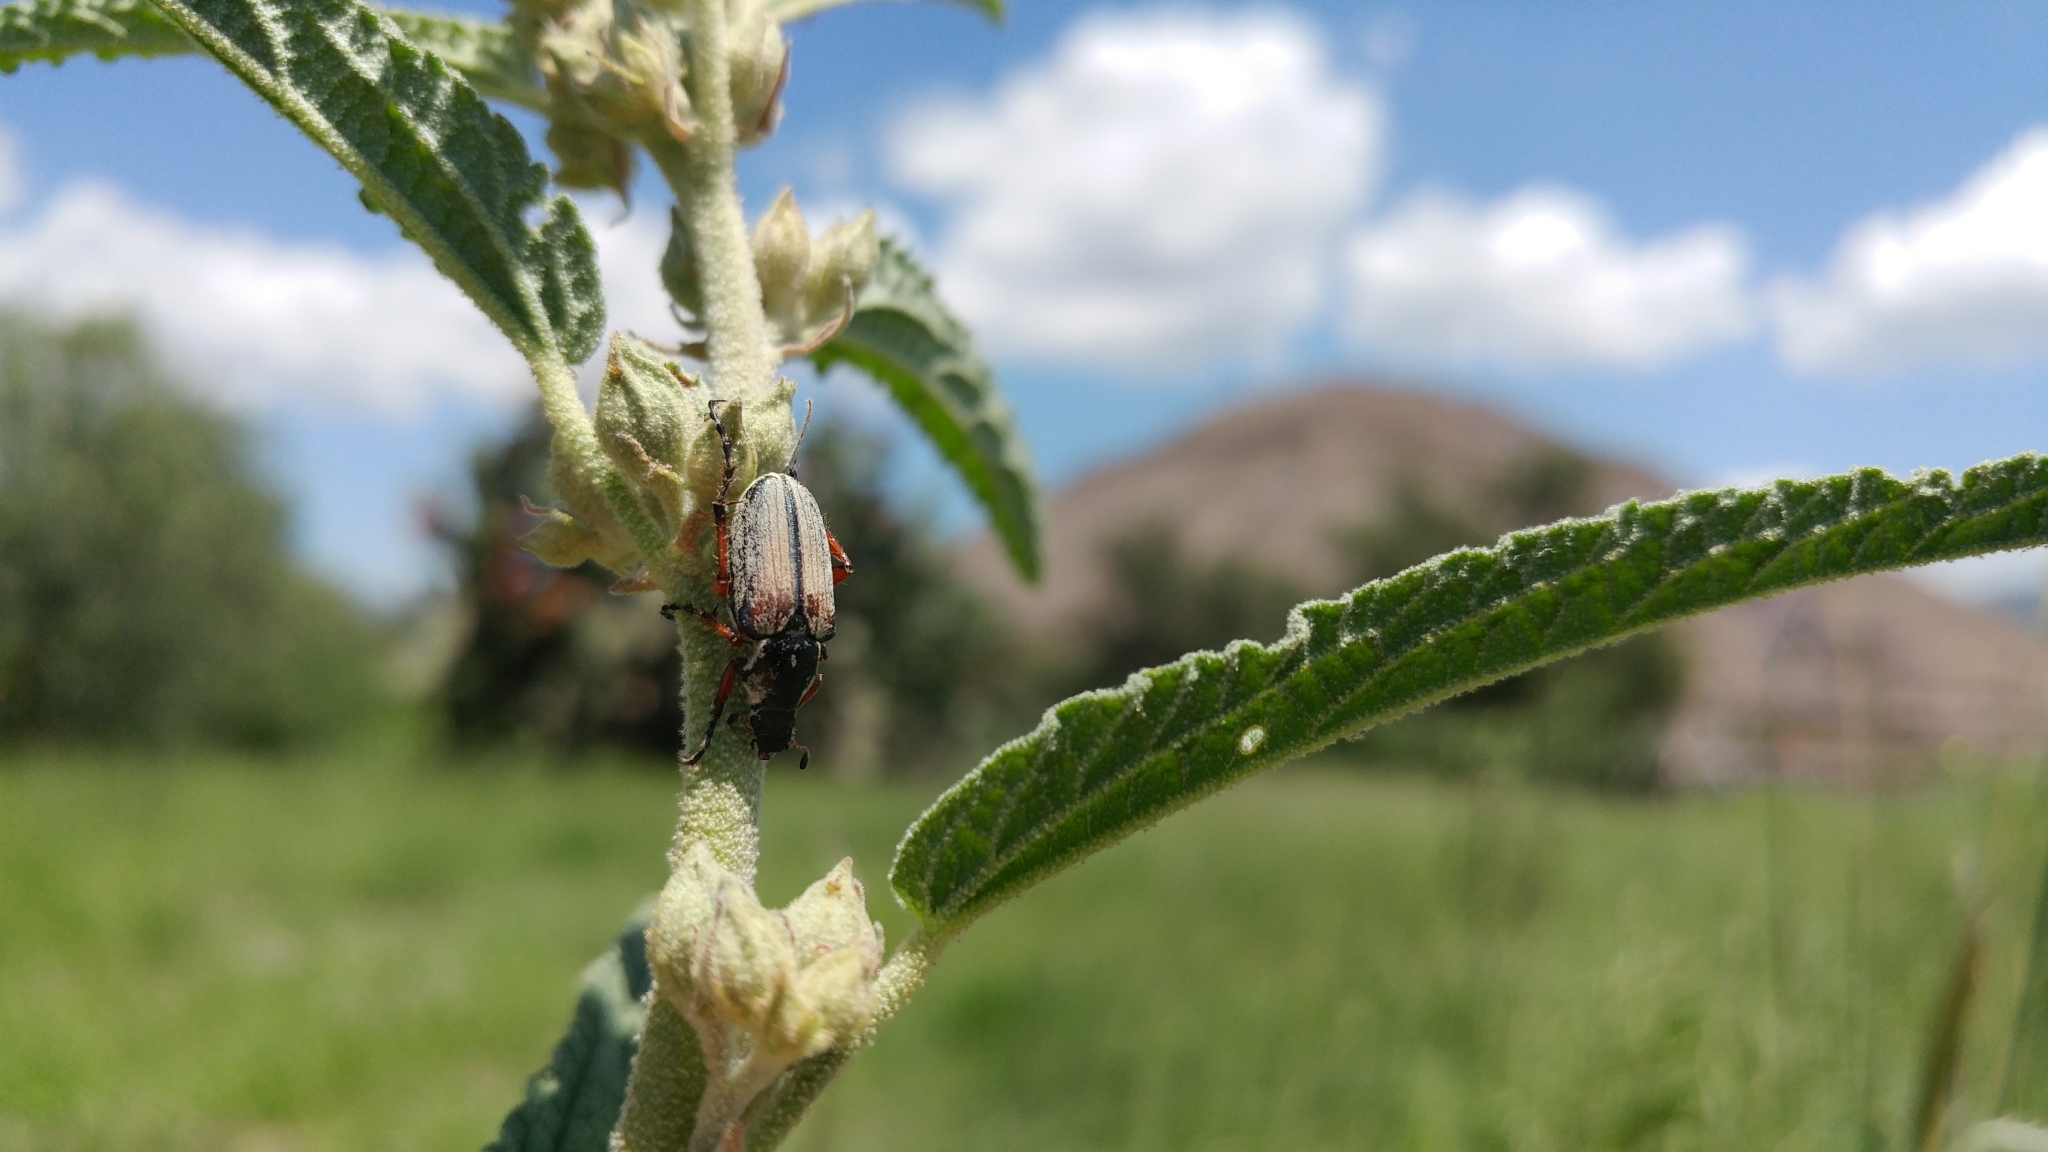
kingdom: Animalia
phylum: Arthropoda
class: Insecta
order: Coleoptera
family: Scarabaeidae
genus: Macrodactylus
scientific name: Macrodactylus mexicanus
